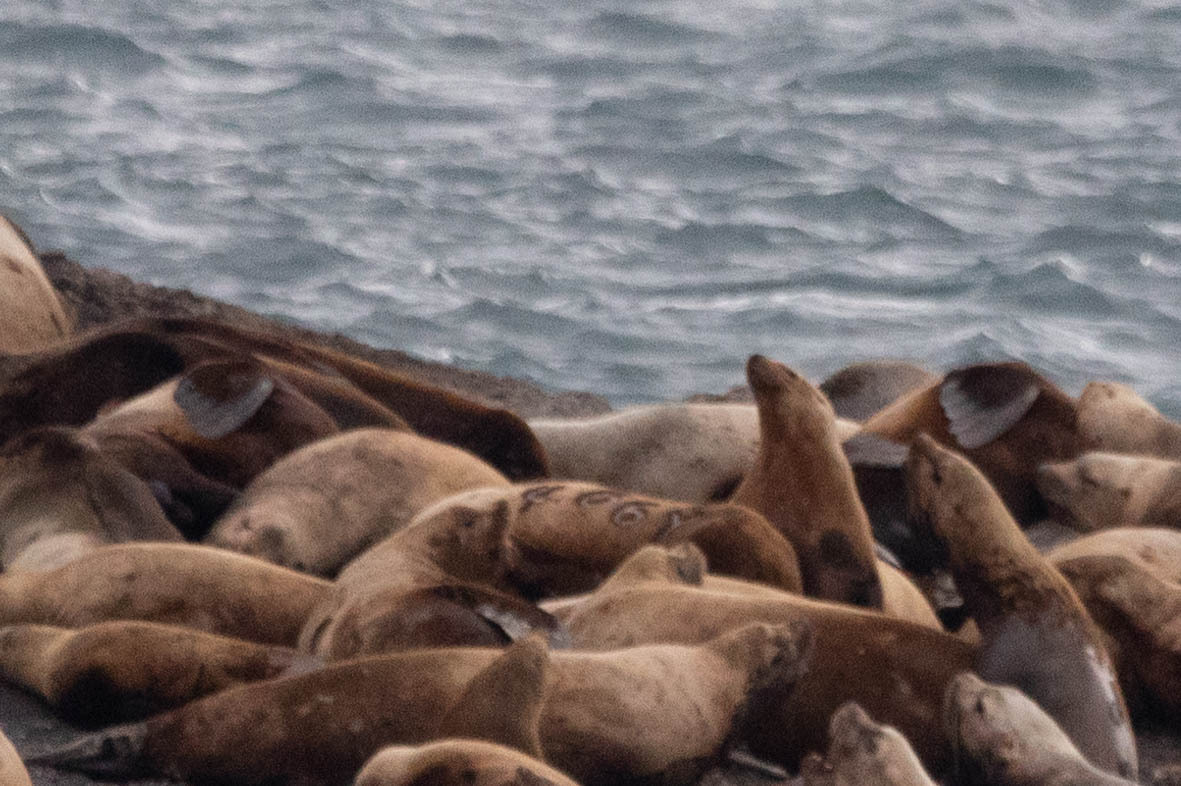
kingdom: Animalia
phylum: Chordata
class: Mammalia
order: Carnivora
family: Otariidae
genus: Eumetopias
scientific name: Eumetopias jubatus
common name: Steller sea lion
